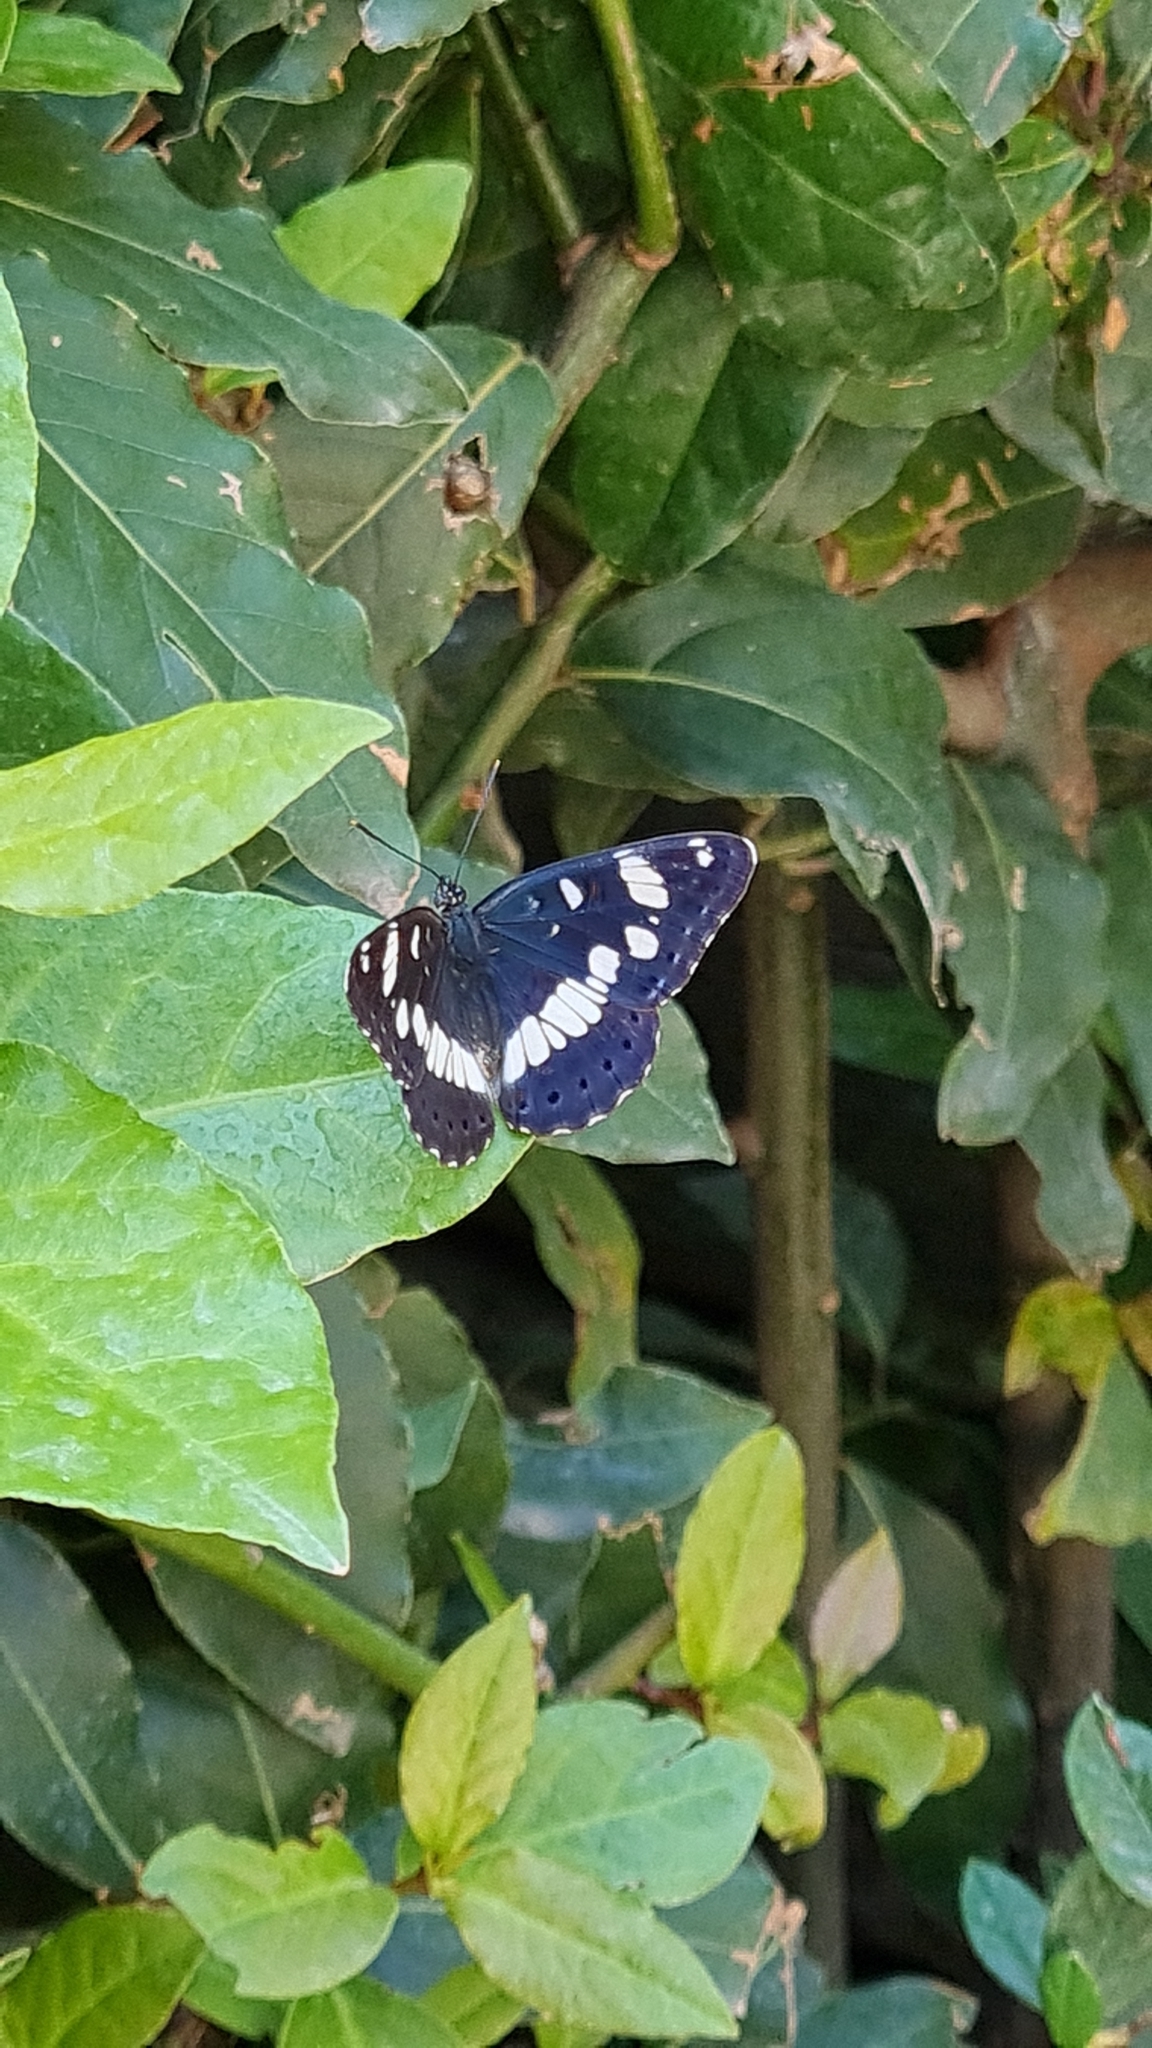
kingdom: Animalia
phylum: Arthropoda
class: Insecta
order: Lepidoptera
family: Nymphalidae
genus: Limenitis
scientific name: Limenitis reducta
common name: Southern white admiral
